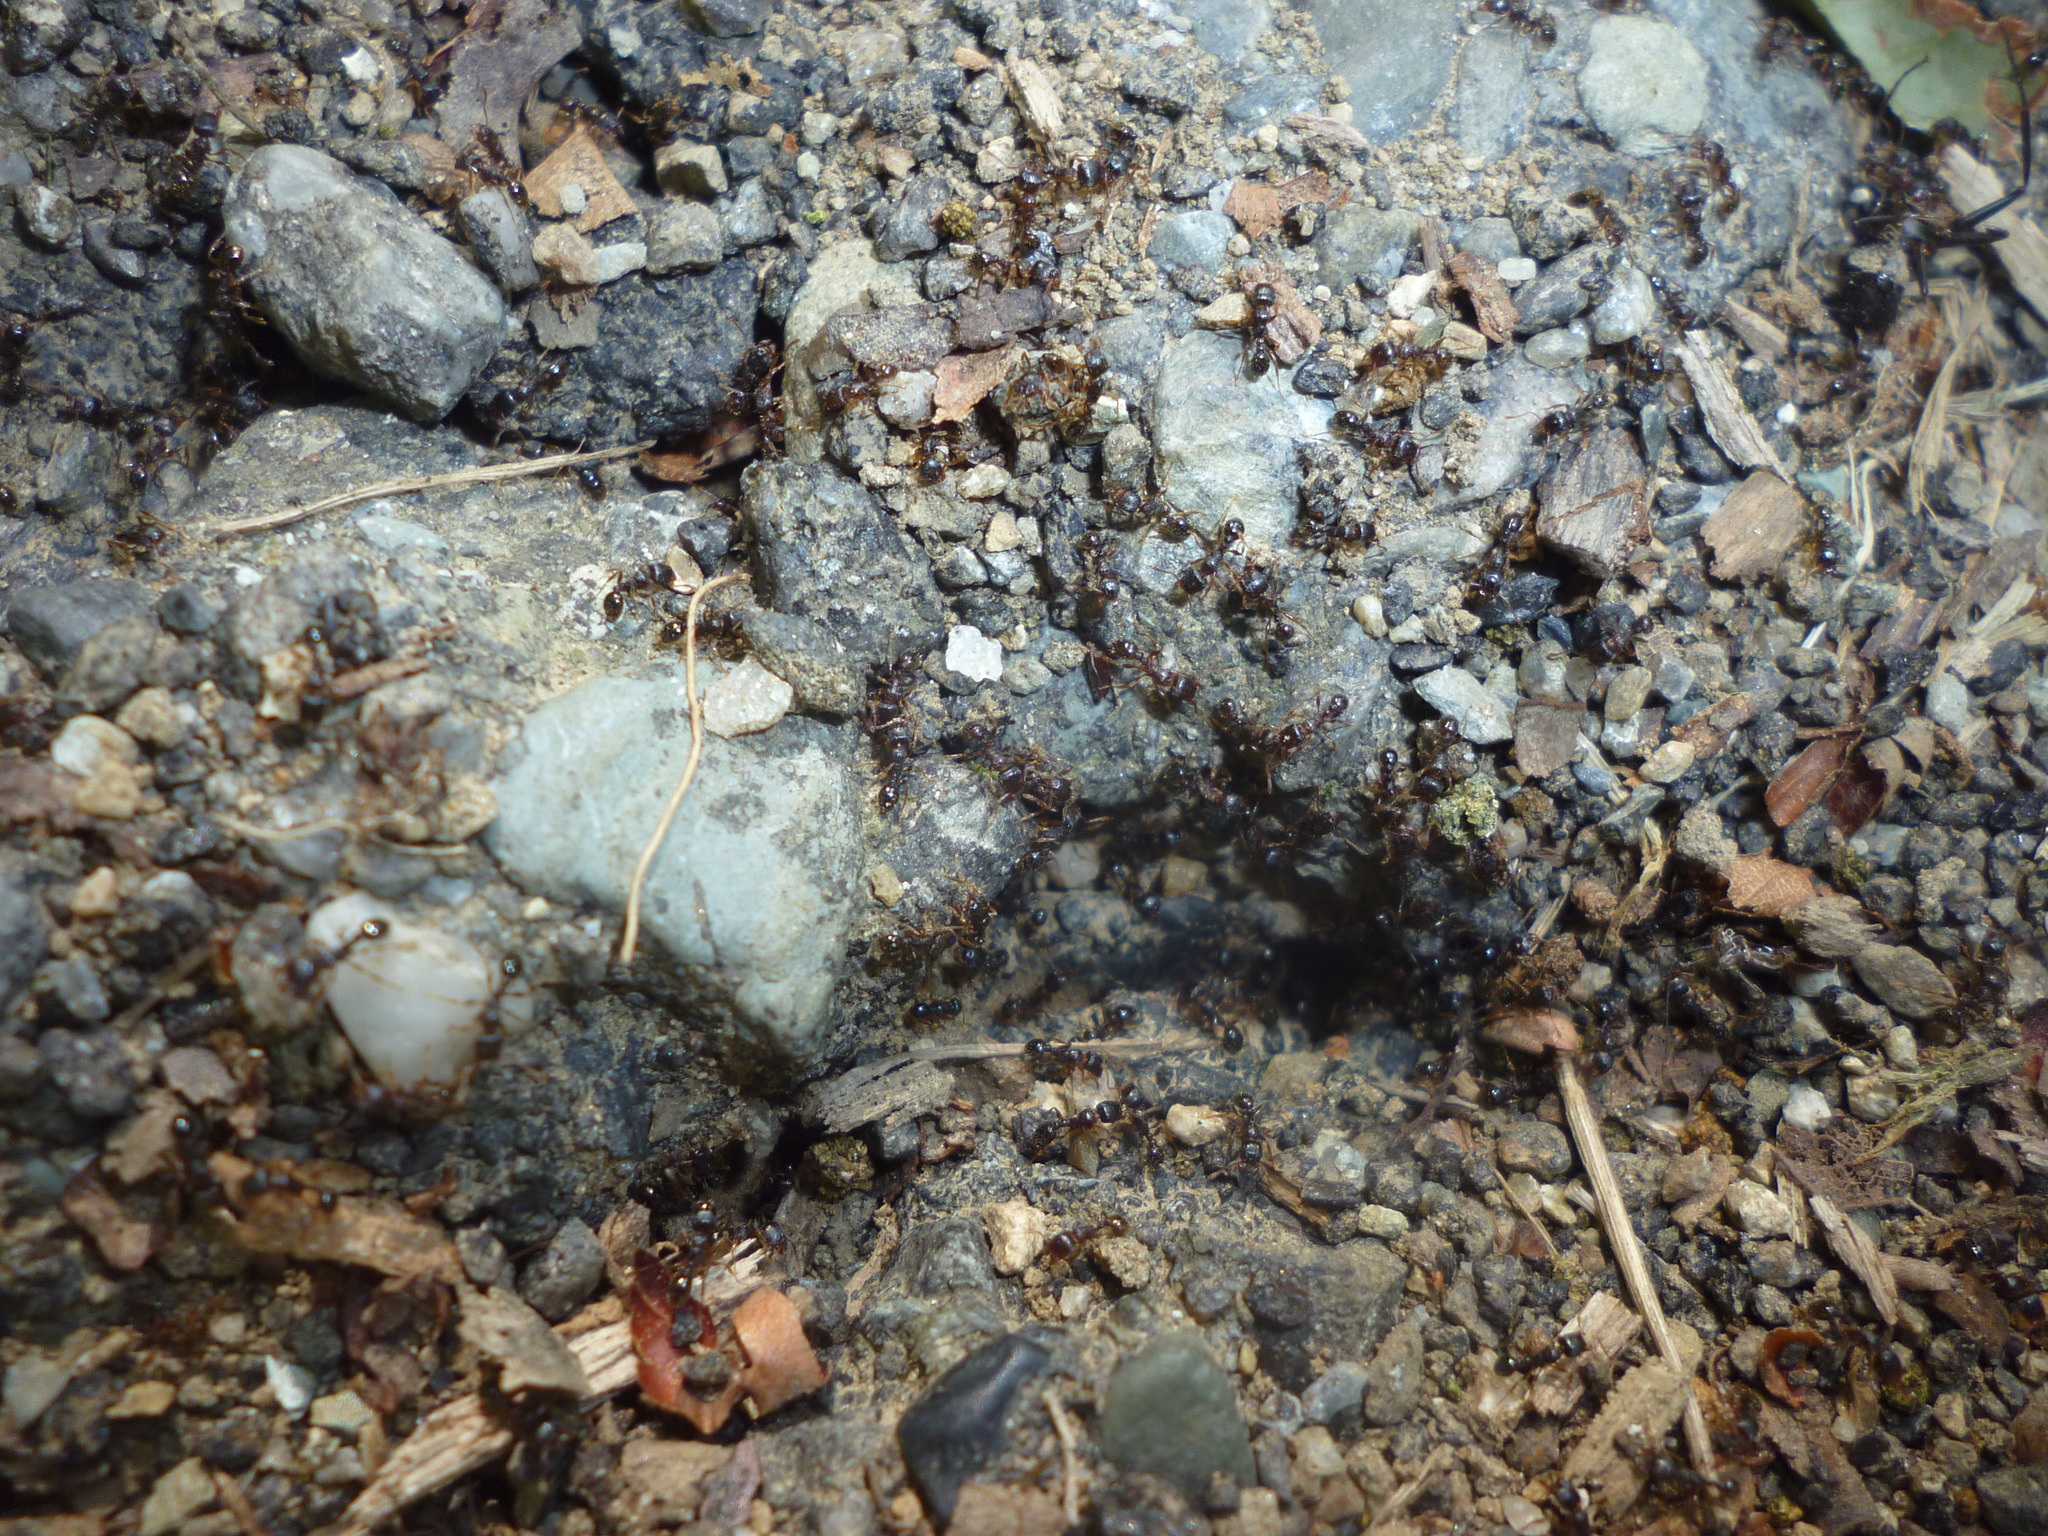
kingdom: Animalia
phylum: Arthropoda
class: Insecta
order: Hymenoptera
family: Formicidae
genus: Tetramorium
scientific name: Tetramorium immigrans
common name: Pavement ant
